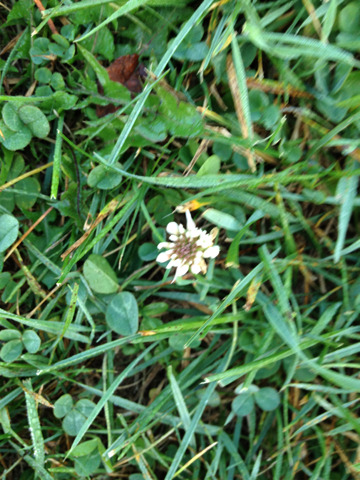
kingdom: Plantae
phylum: Tracheophyta
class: Magnoliopsida
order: Fabales
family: Fabaceae
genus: Trifolium
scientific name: Trifolium repens
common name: White clover
